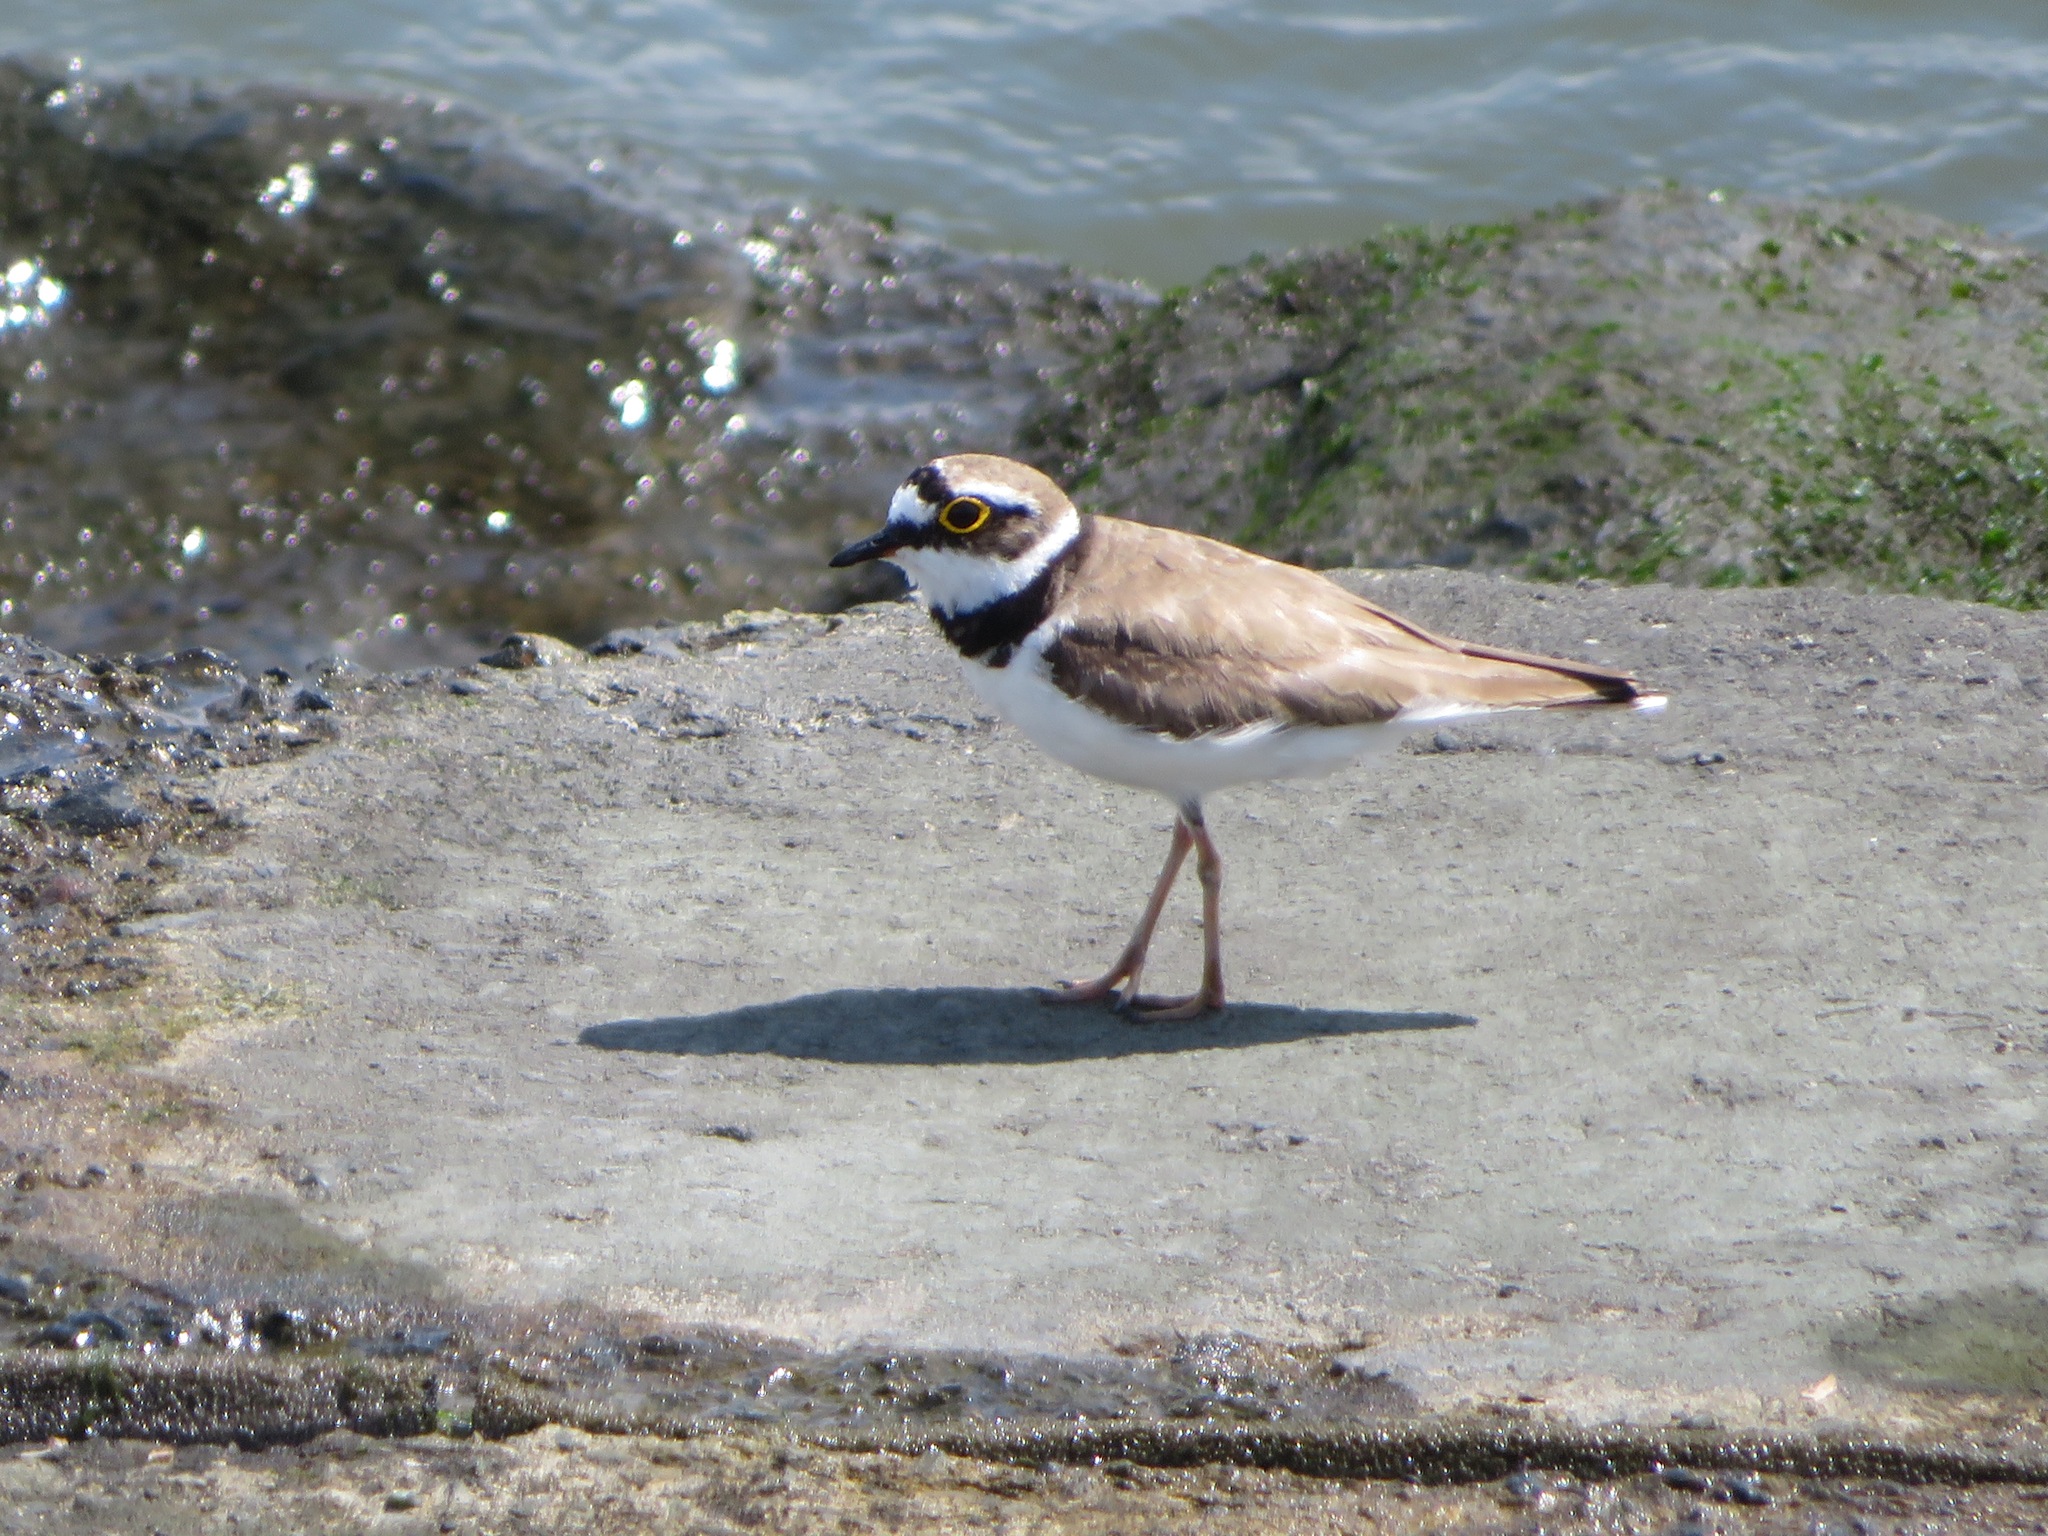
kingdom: Animalia
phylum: Chordata
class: Aves
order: Charadriiformes
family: Charadriidae
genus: Charadrius
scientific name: Charadrius dubius
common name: Little ringed plover
